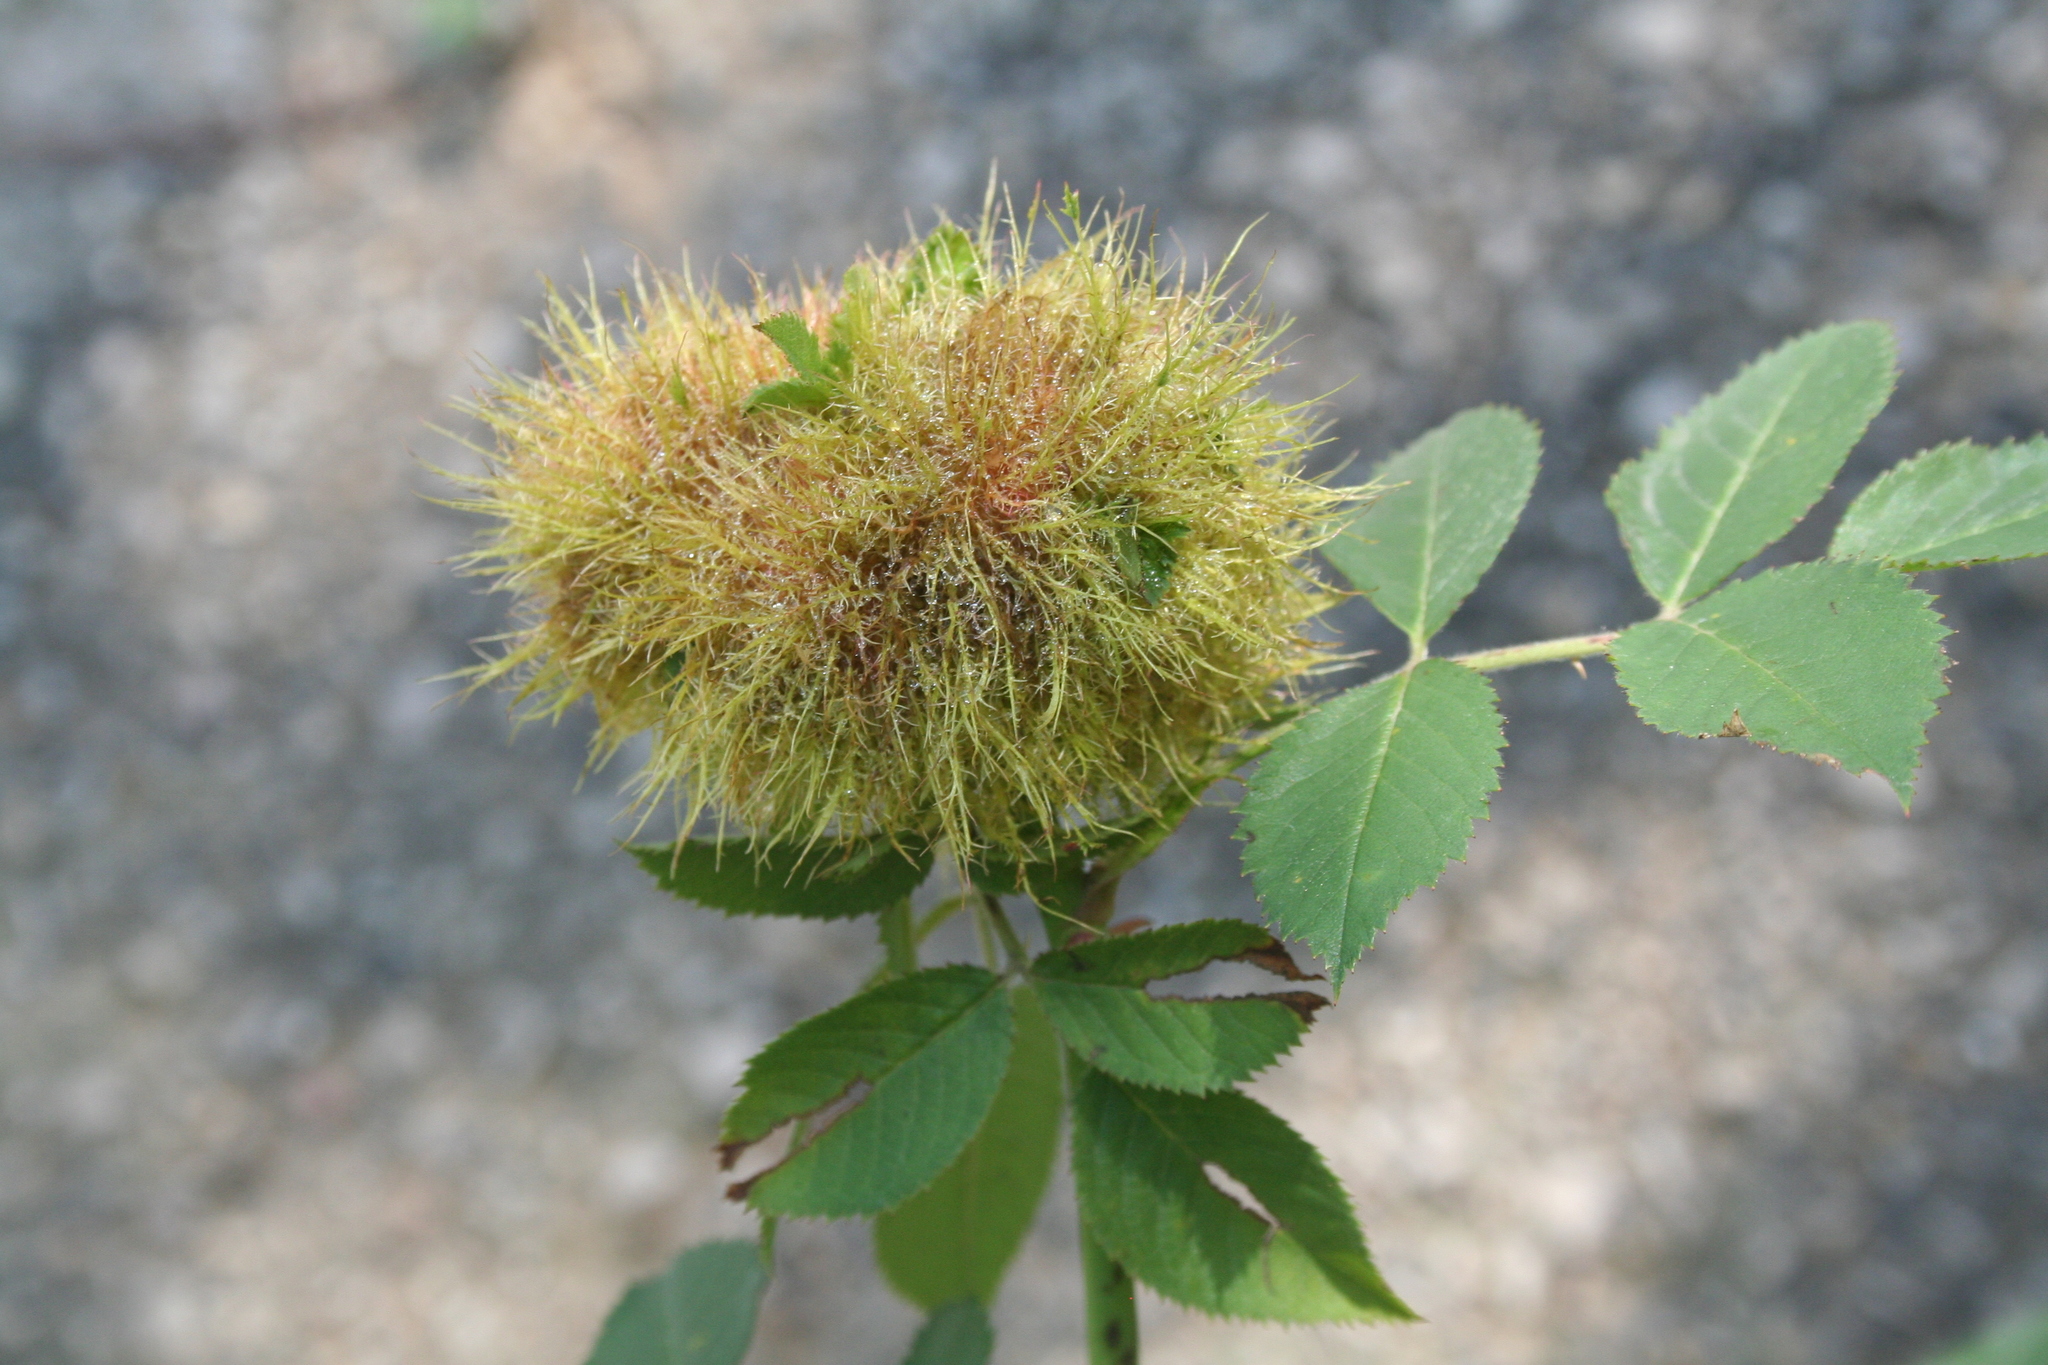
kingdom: Animalia
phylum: Arthropoda
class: Insecta
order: Hymenoptera
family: Cynipidae
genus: Diplolepis
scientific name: Diplolepis rosae
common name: Bedeguar gall
